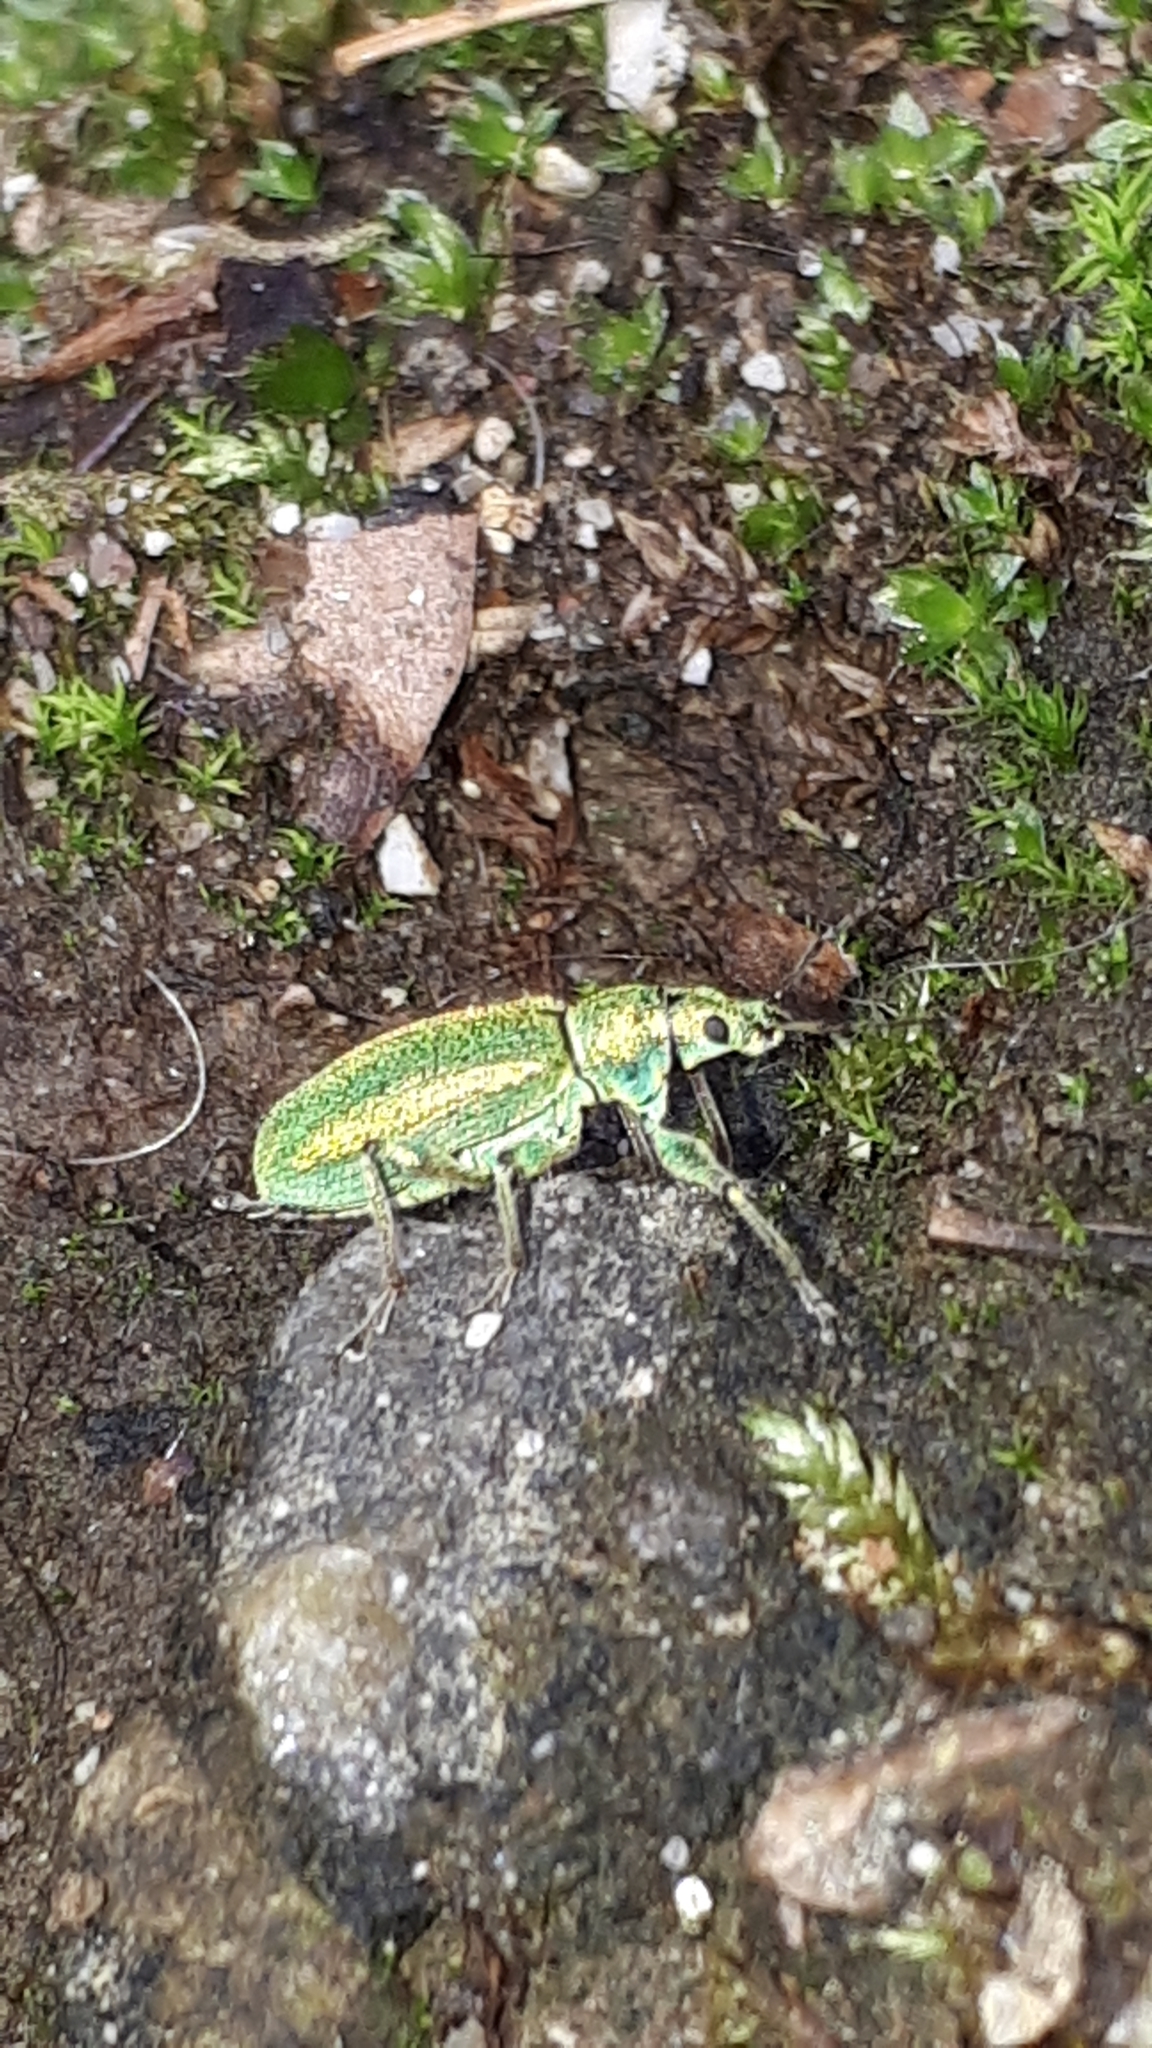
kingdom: Animalia
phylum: Arthropoda
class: Insecta
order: Coleoptera
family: Curculionidae
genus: Phyllobius
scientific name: Phyllobius arborator
